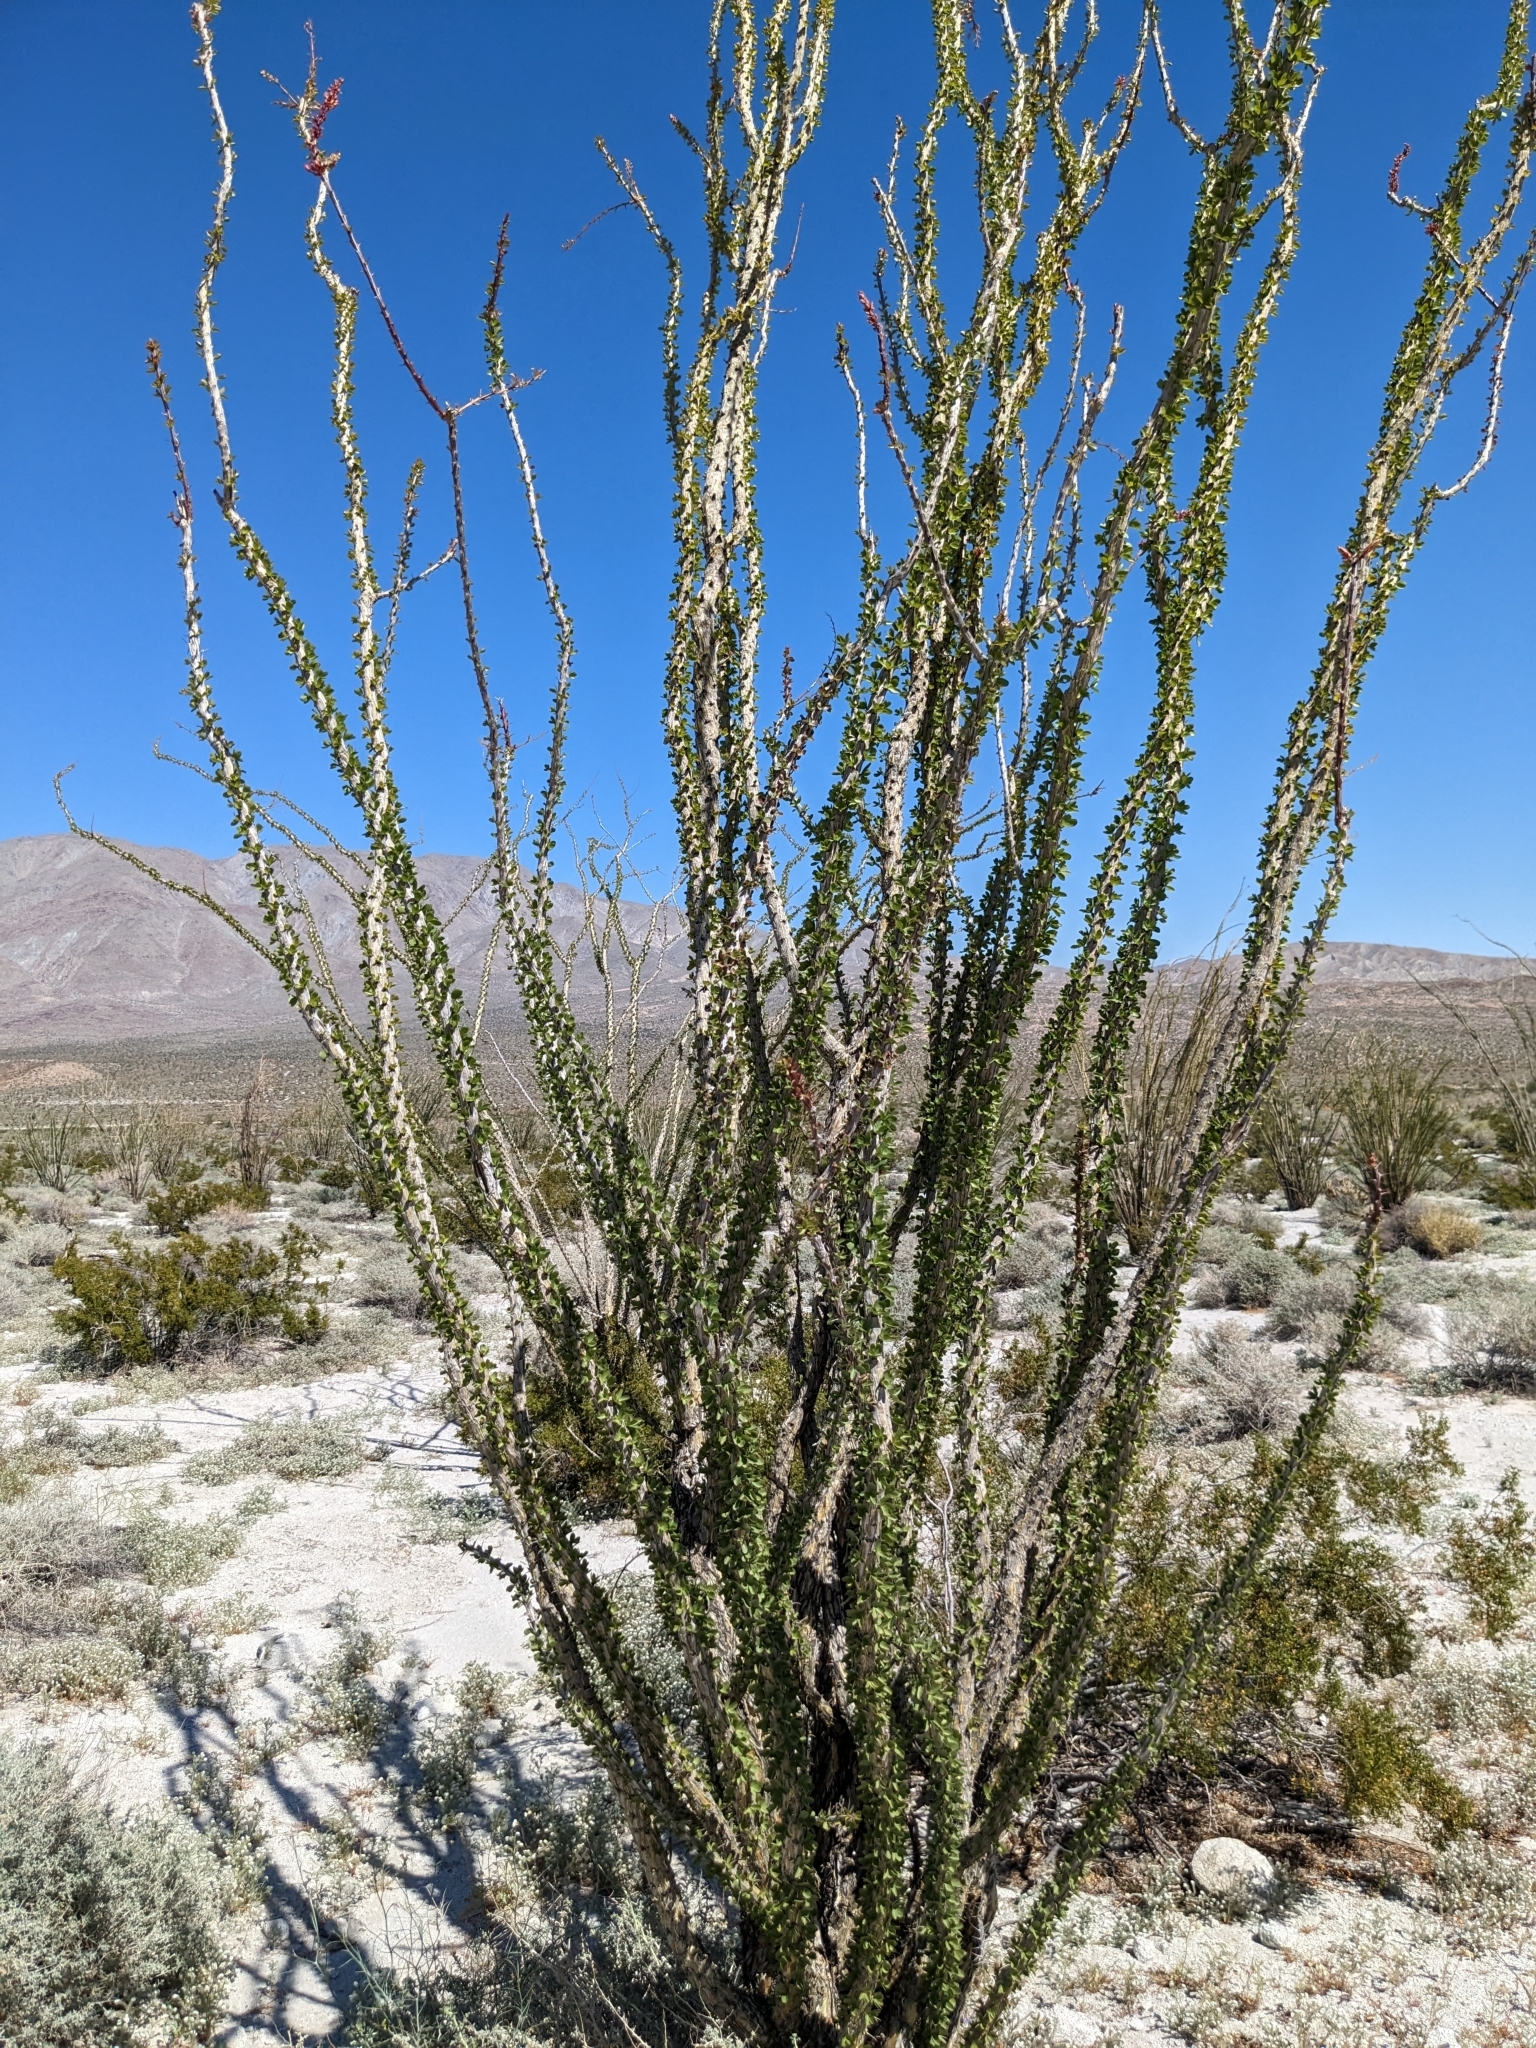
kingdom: Plantae
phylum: Tracheophyta
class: Magnoliopsida
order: Ericales
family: Fouquieriaceae
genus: Fouquieria
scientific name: Fouquieria splendens
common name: Vine-cactus
